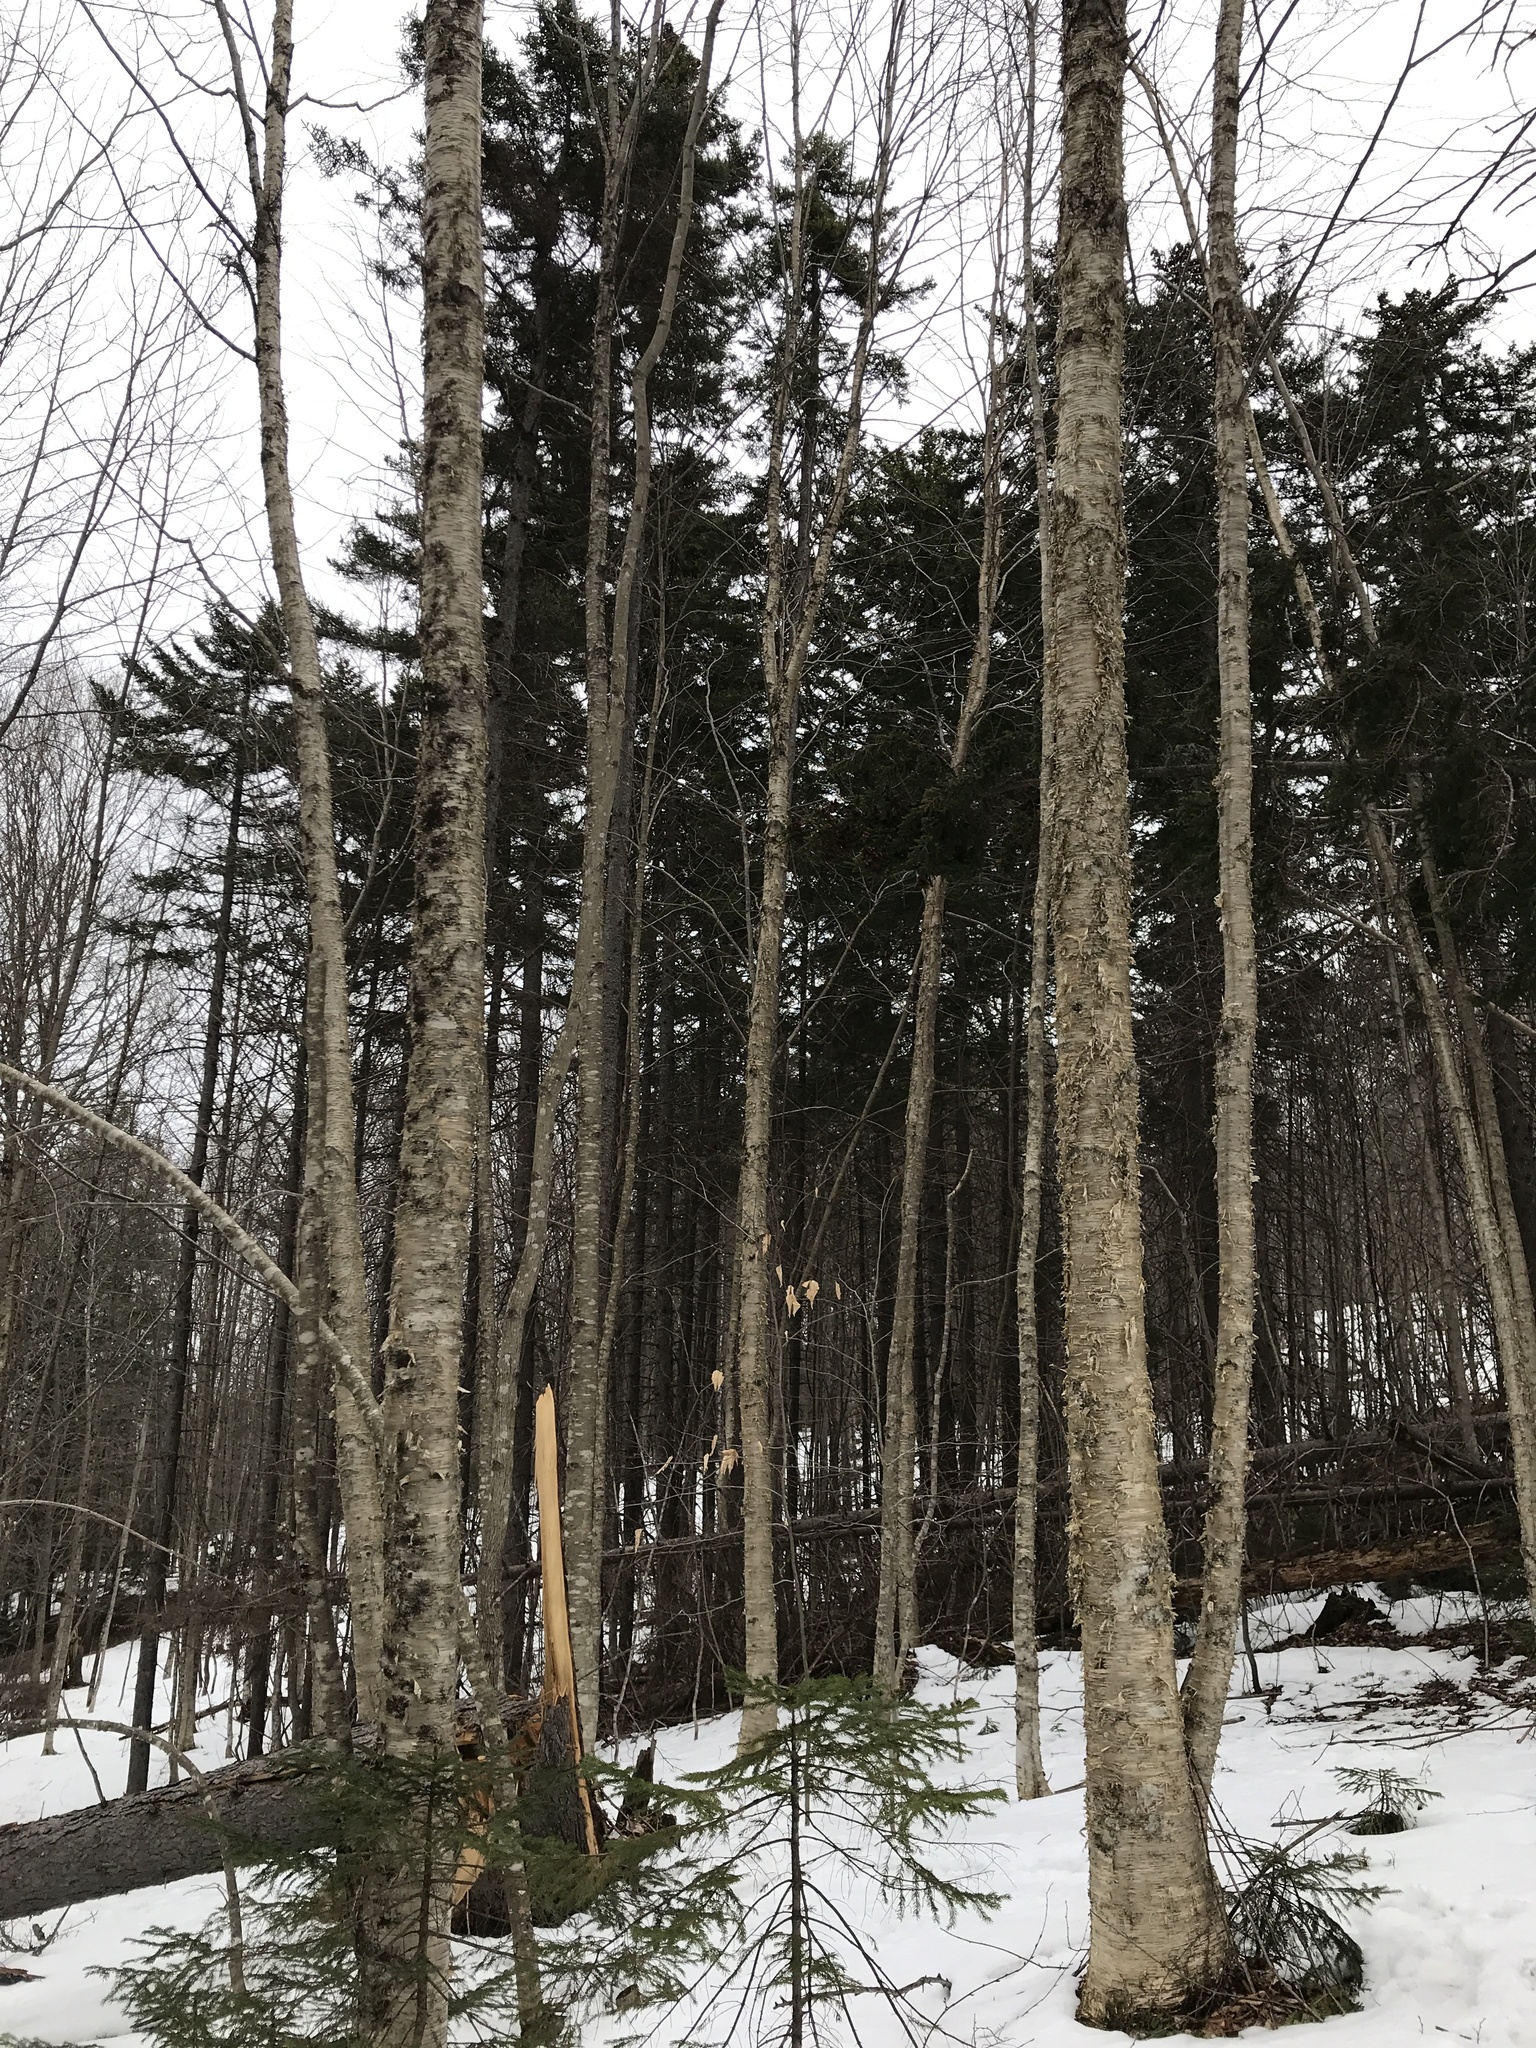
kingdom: Plantae
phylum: Tracheophyta
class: Pinopsida
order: Pinales
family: Pinaceae
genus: Picea
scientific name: Picea rubens
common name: Red spruce
